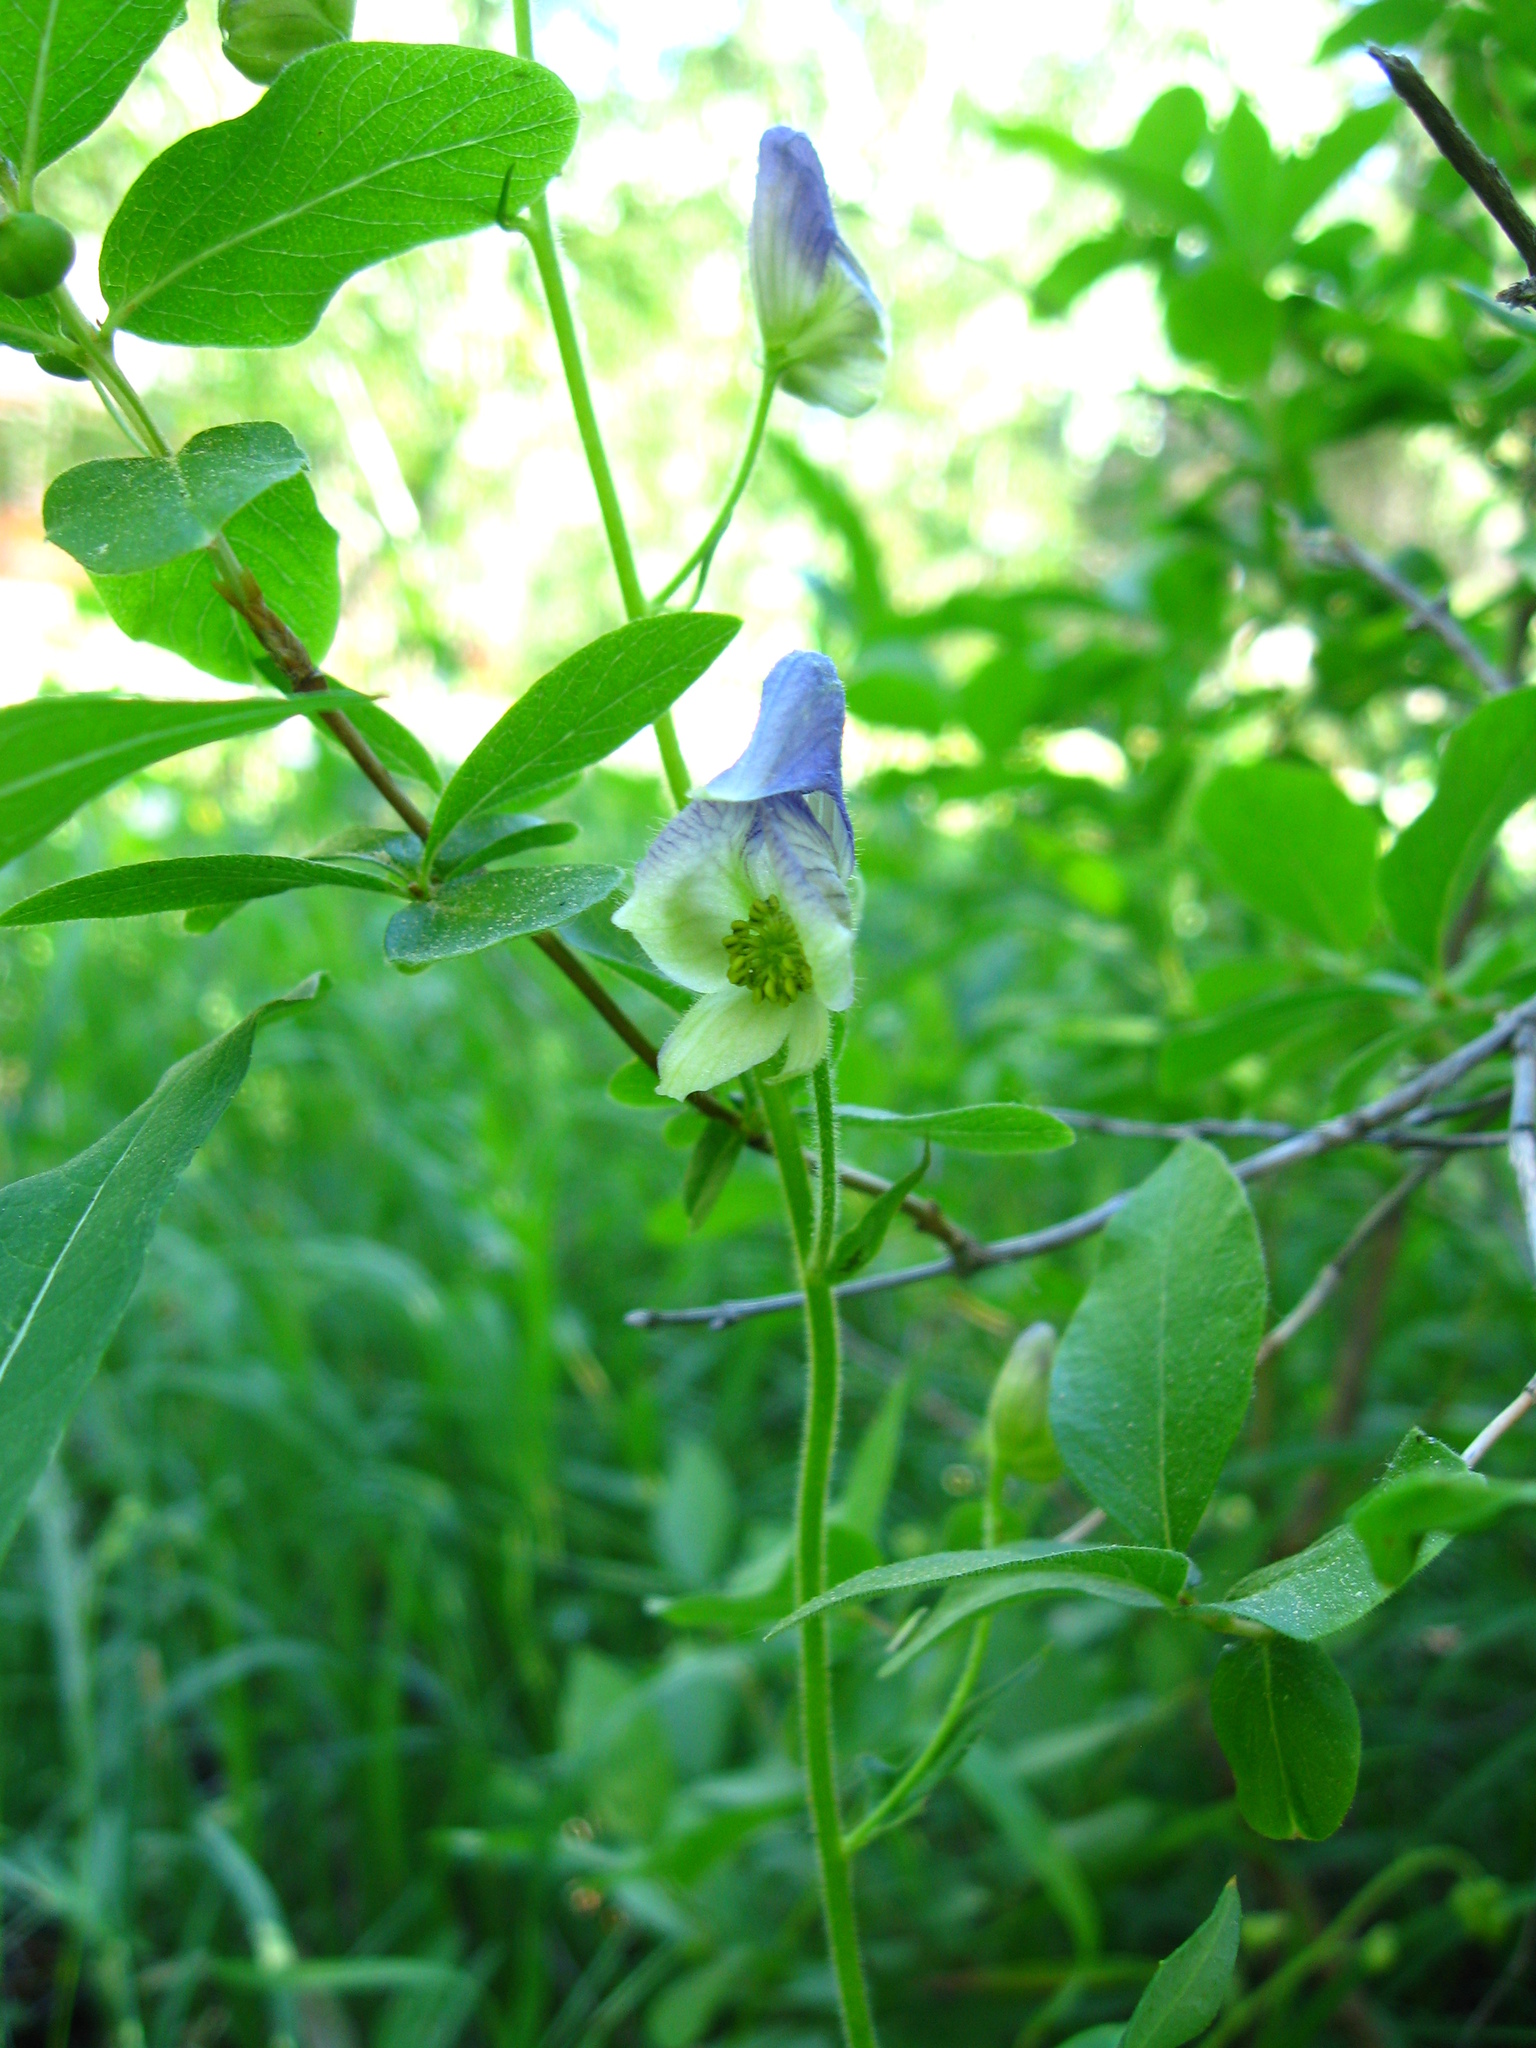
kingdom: Plantae
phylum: Tracheophyta
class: Magnoliopsida
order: Ranunculales
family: Ranunculaceae
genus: Aconitum
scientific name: Aconitum columbianum
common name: Columbia aconite
